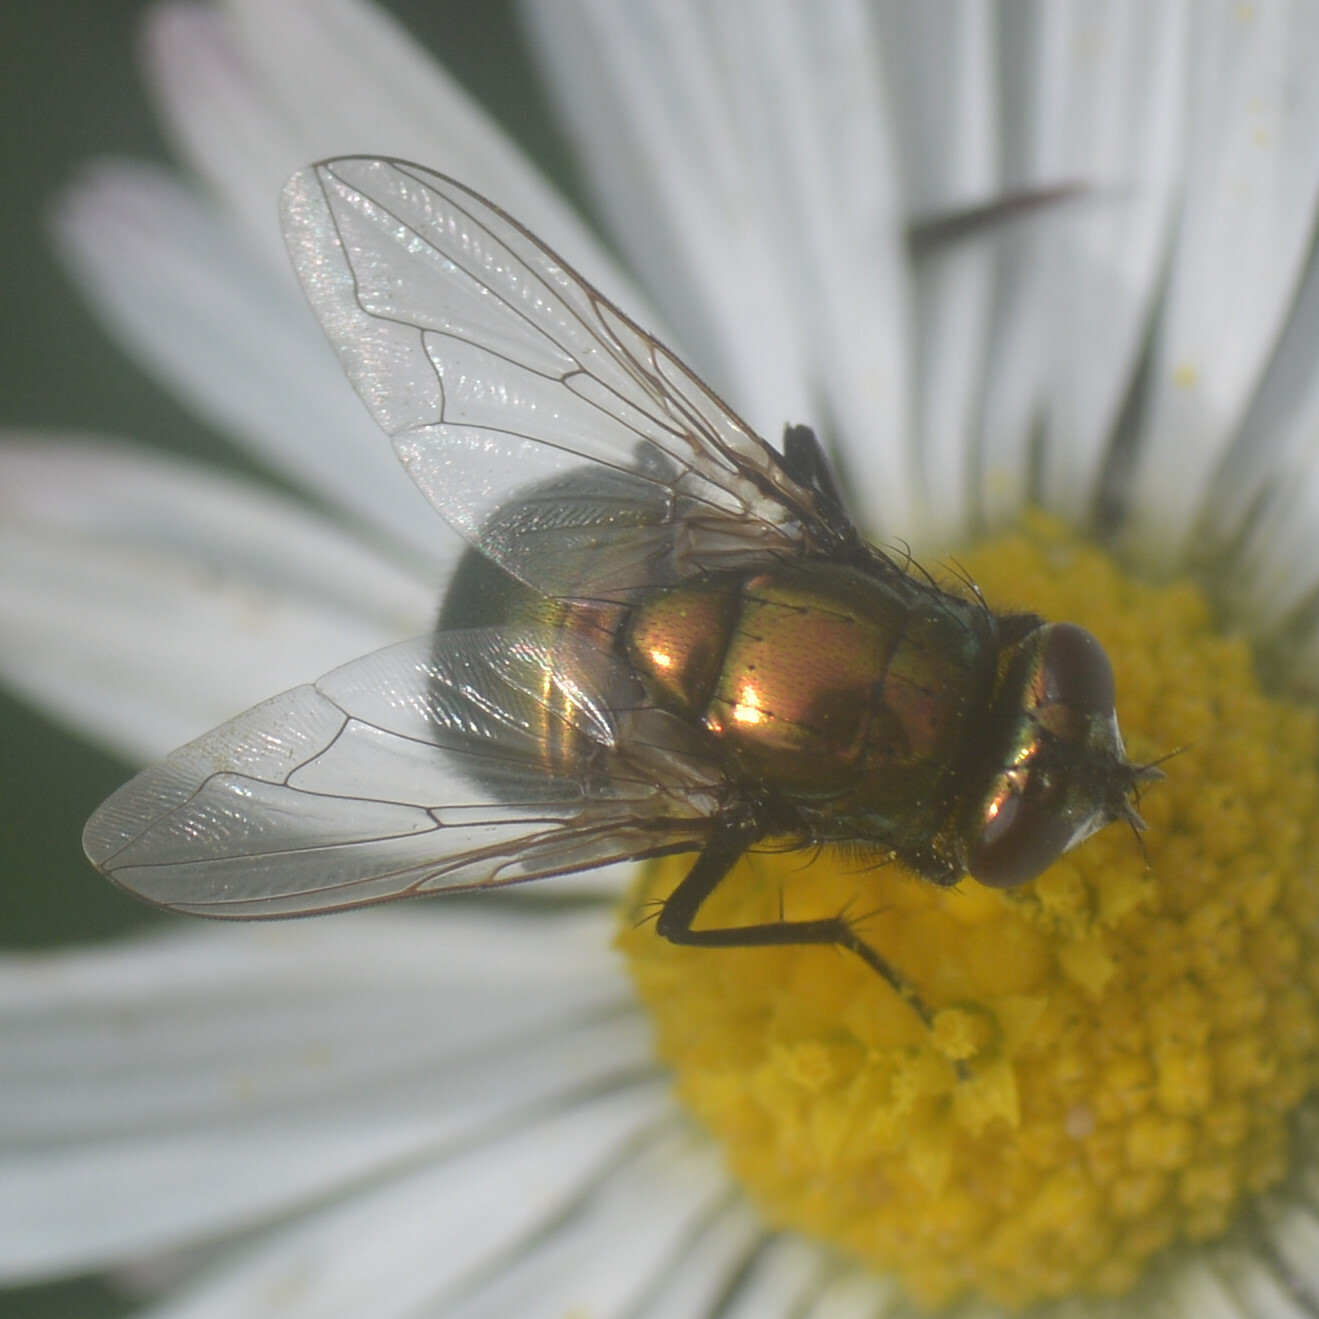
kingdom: Animalia
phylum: Arthropoda
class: Insecta
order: Diptera
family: Muscidae
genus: Neomyia
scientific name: Neomyia cornicina
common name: House fly
